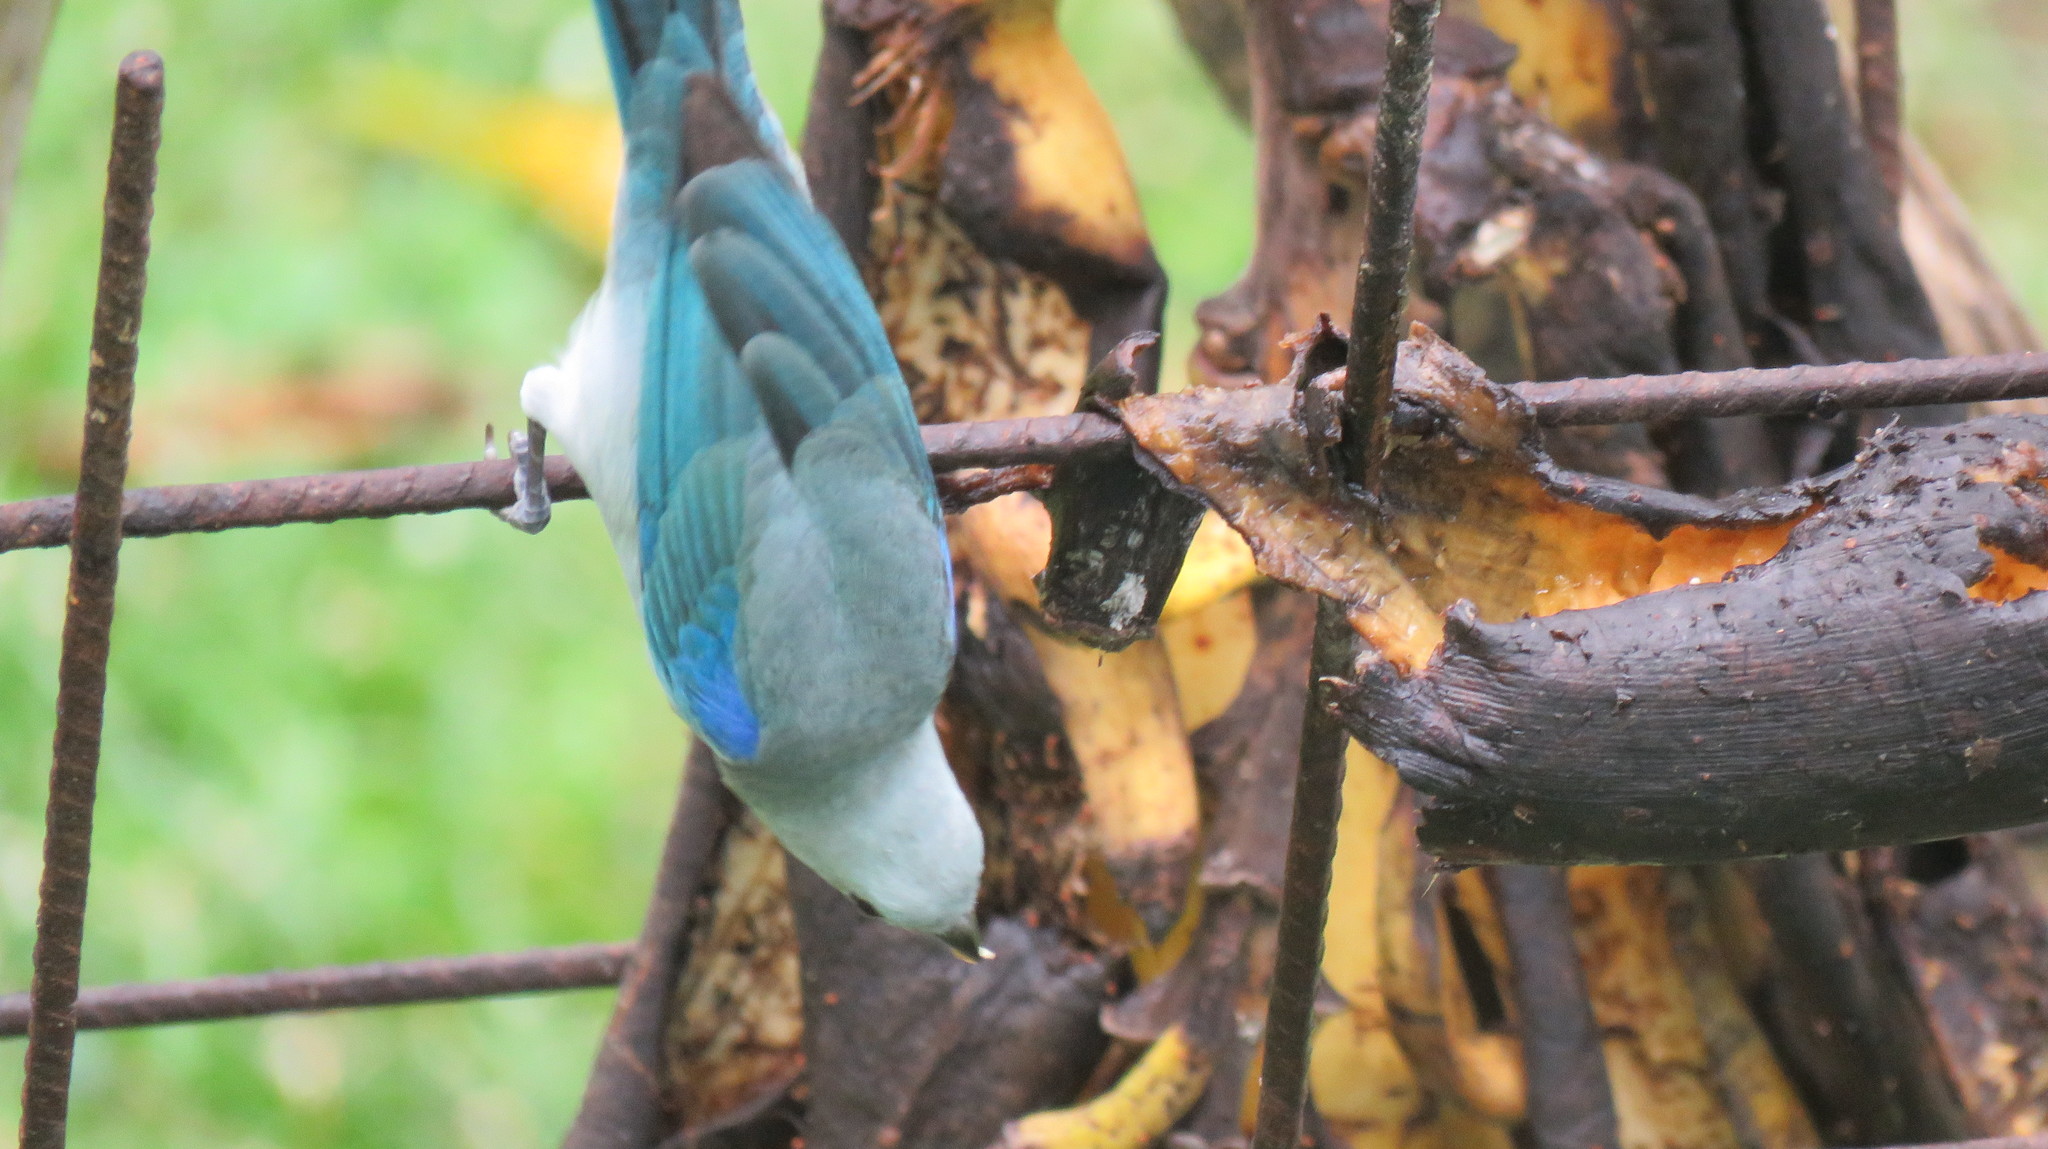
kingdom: Animalia
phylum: Chordata
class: Aves
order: Passeriformes
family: Thraupidae
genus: Thraupis
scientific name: Thraupis episcopus
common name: Blue-grey tanager
